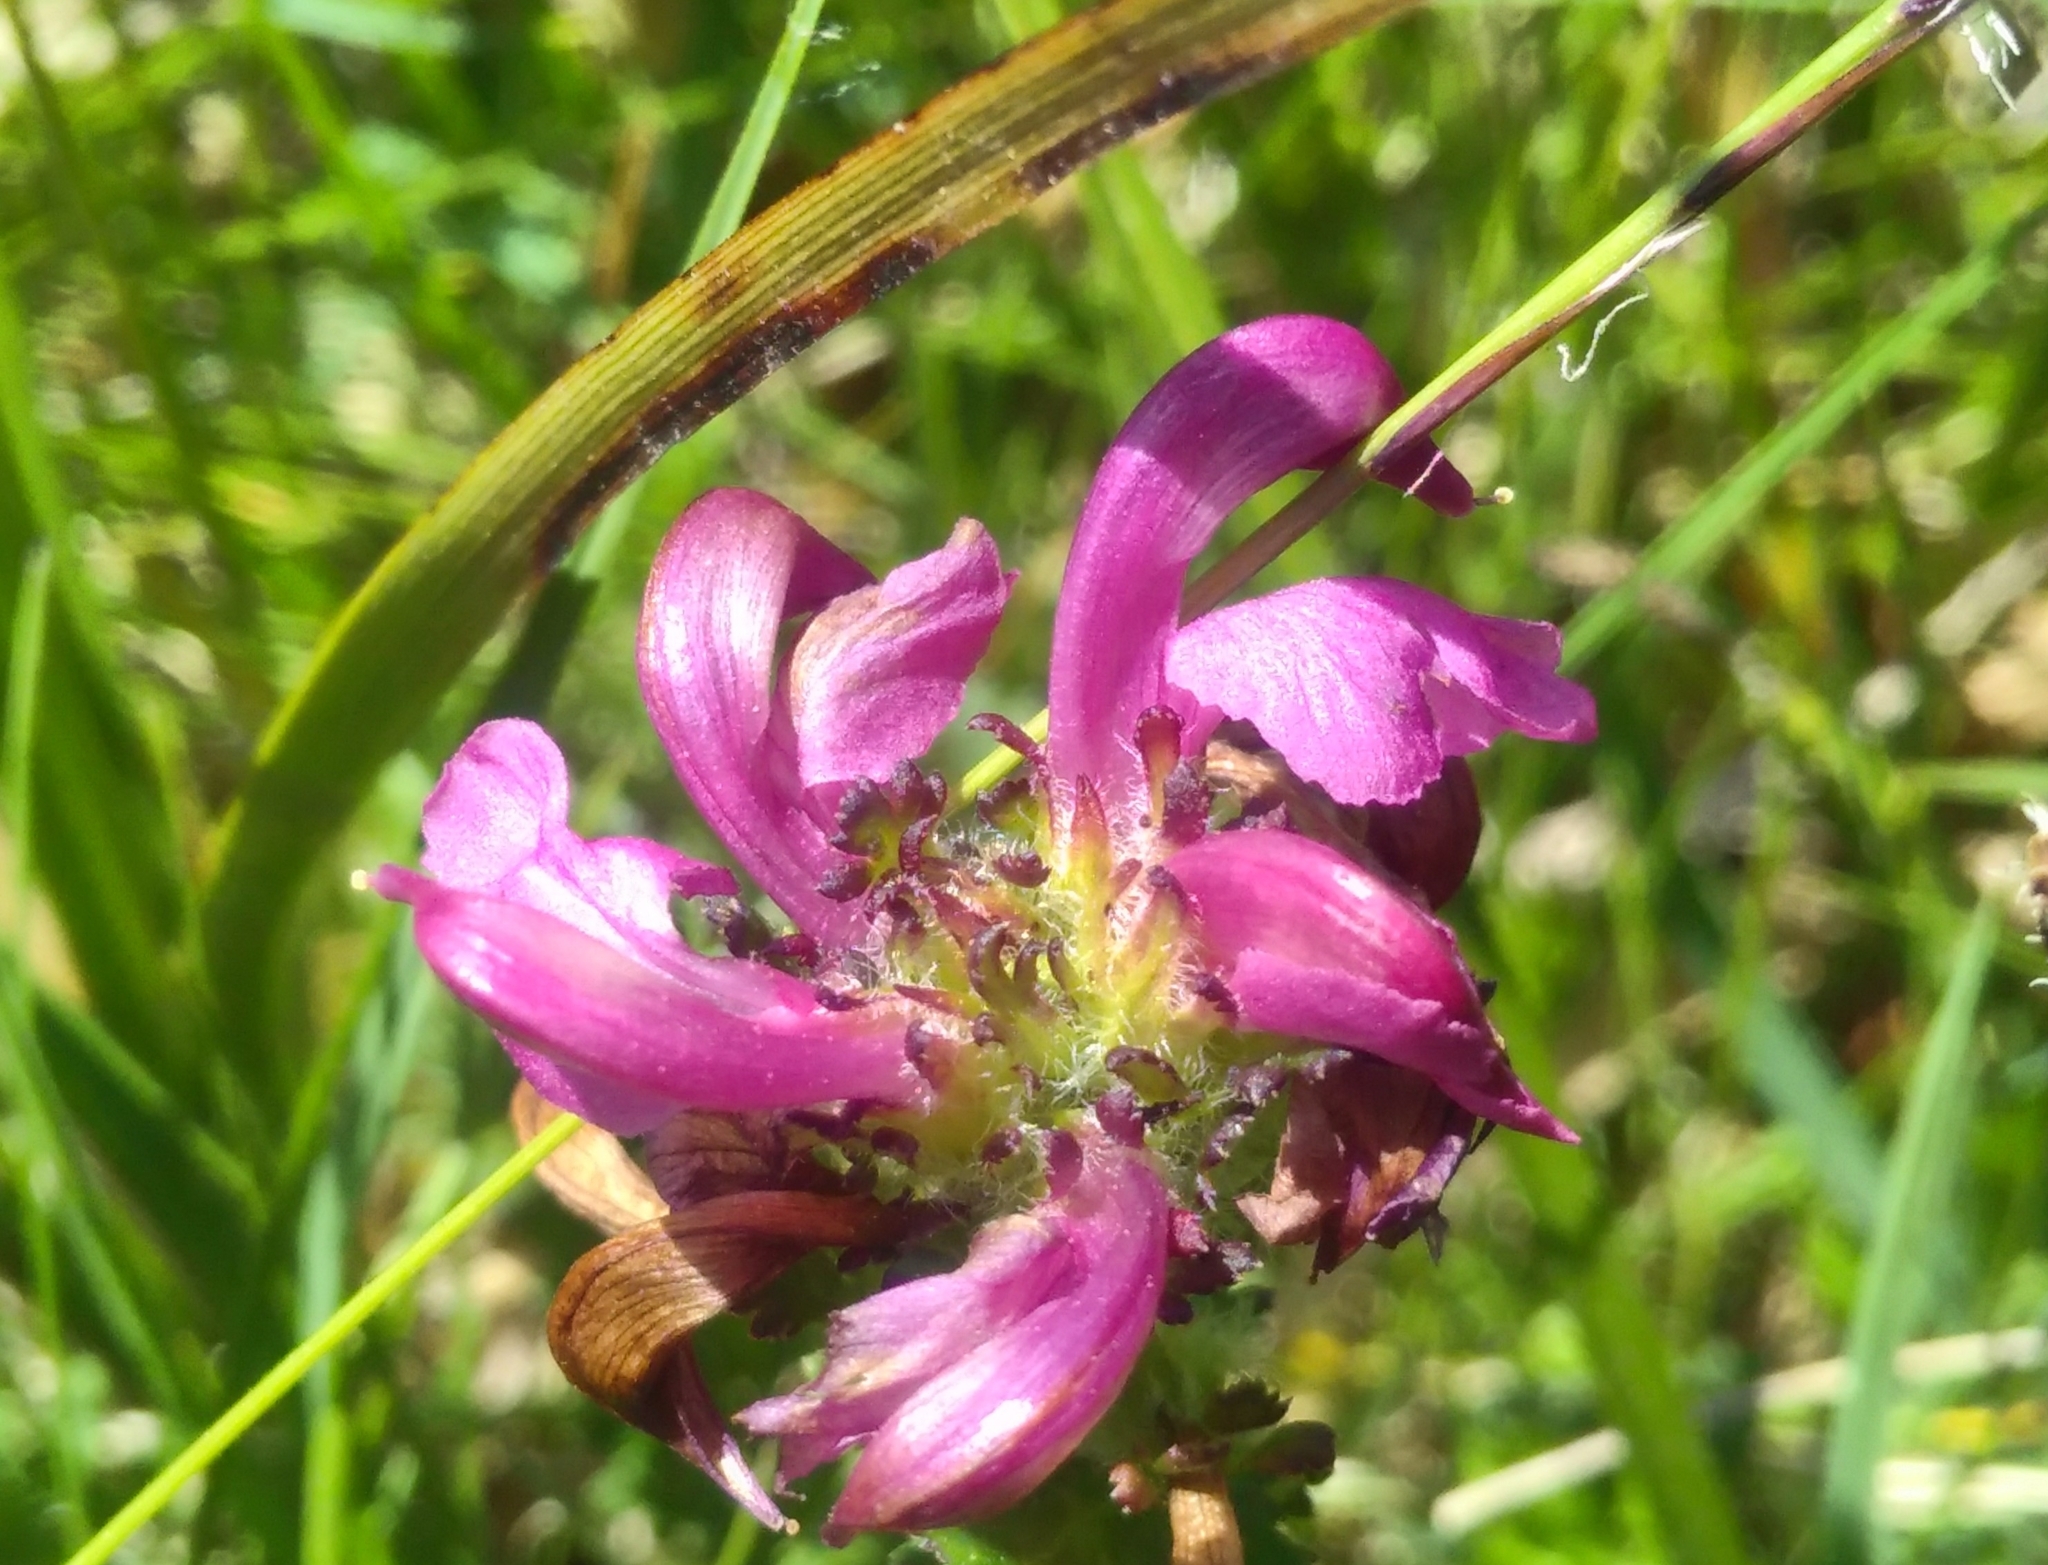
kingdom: Plantae
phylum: Tracheophyta
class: Magnoliopsida
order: Lamiales
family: Orobanchaceae
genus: Pedicularis
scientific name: Pedicularis pyrenaica
